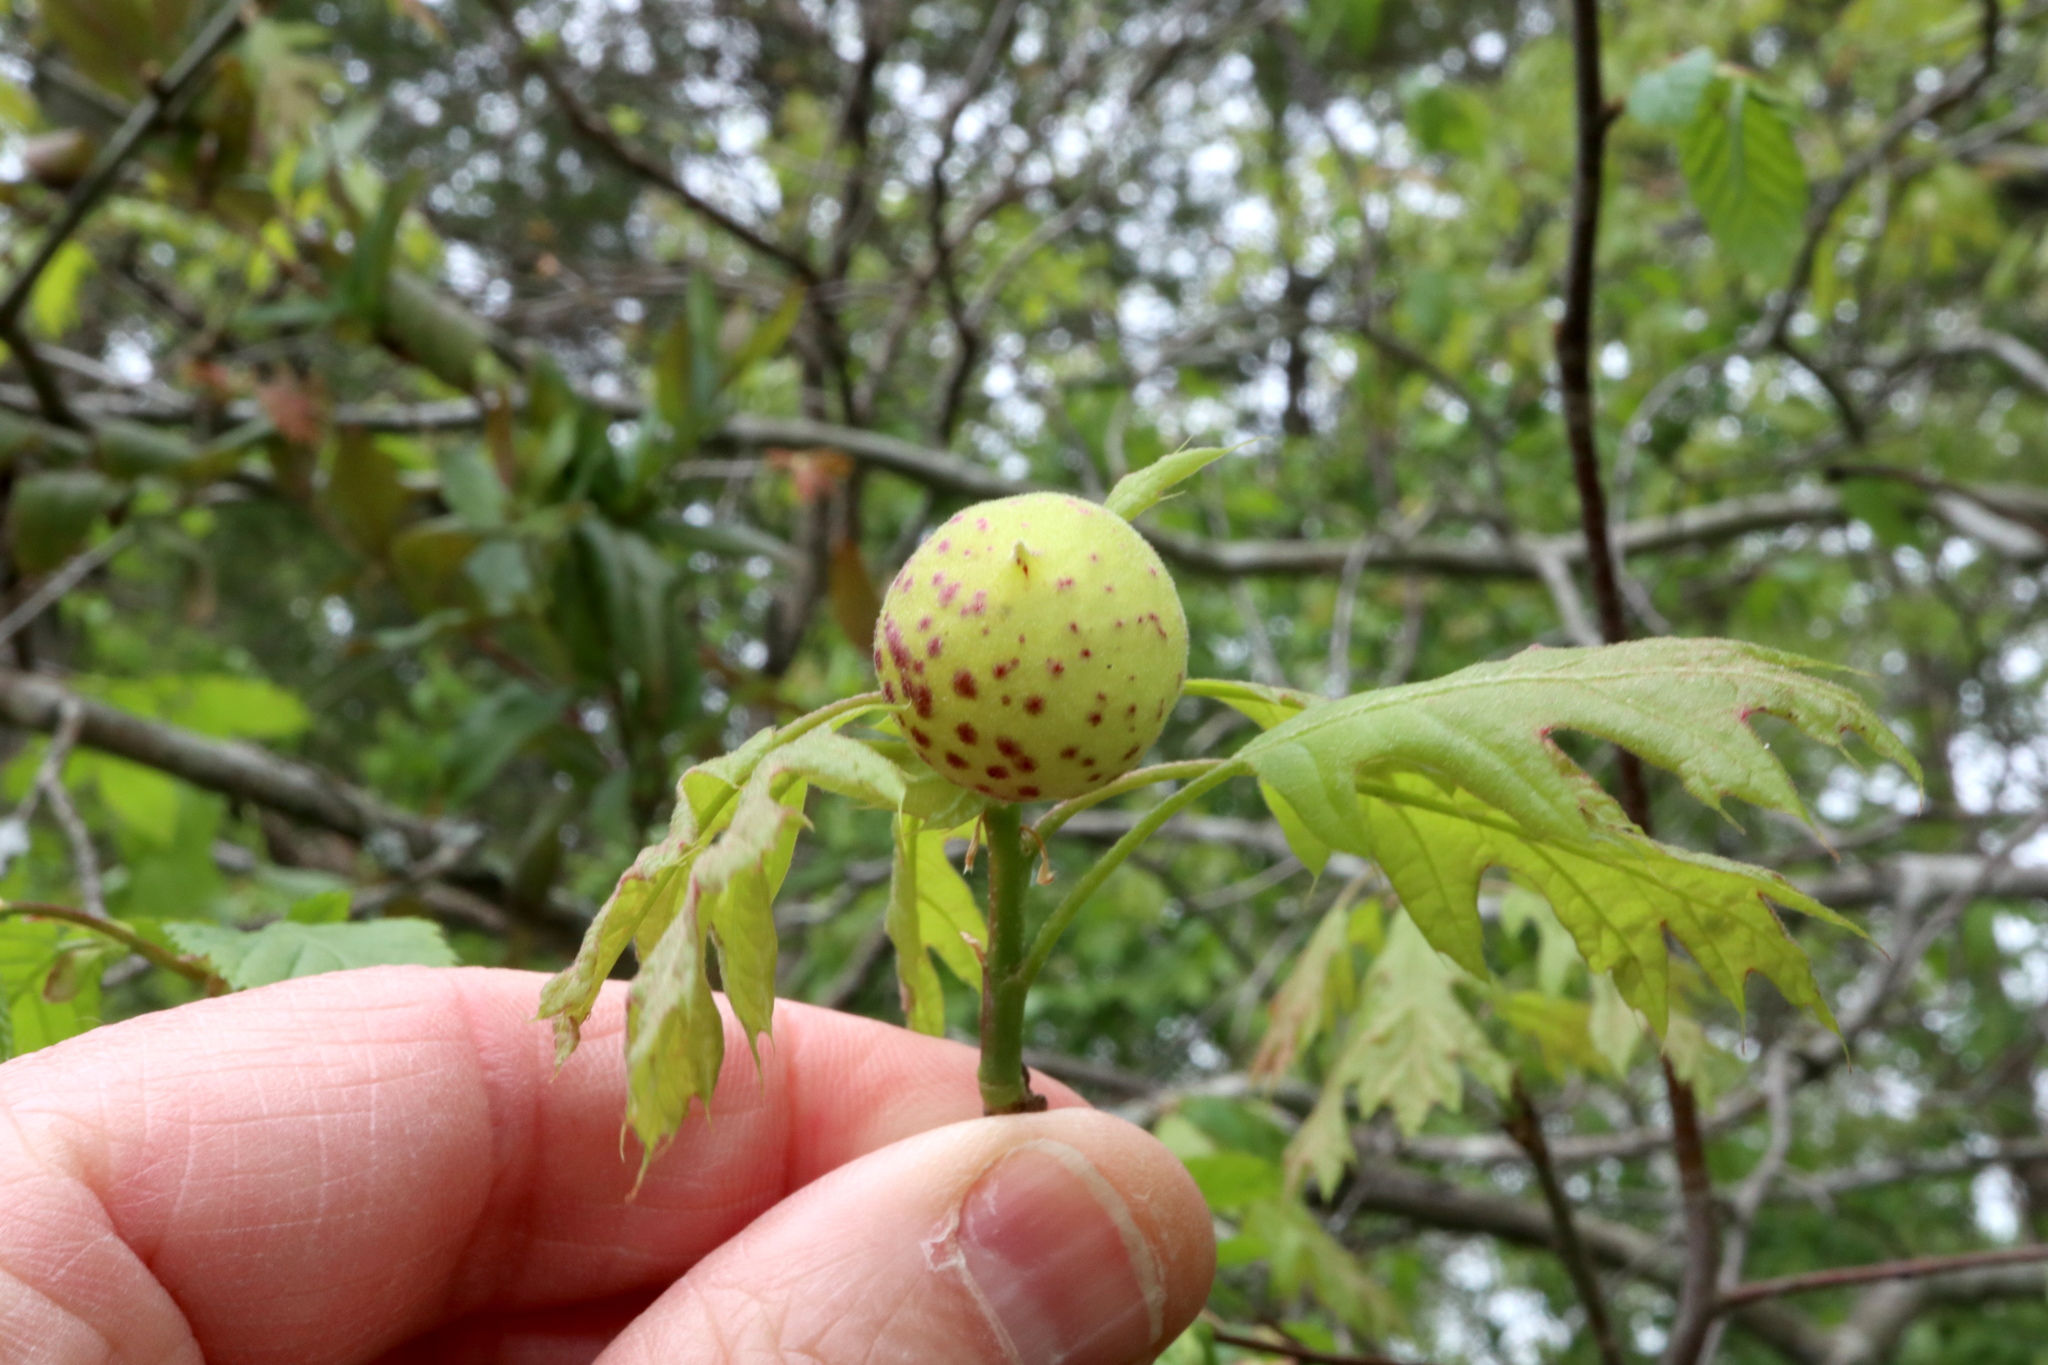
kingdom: Animalia
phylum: Arthropoda
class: Insecta
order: Hymenoptera
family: Cynipidae
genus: Amphibolips
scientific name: Amphibolips
